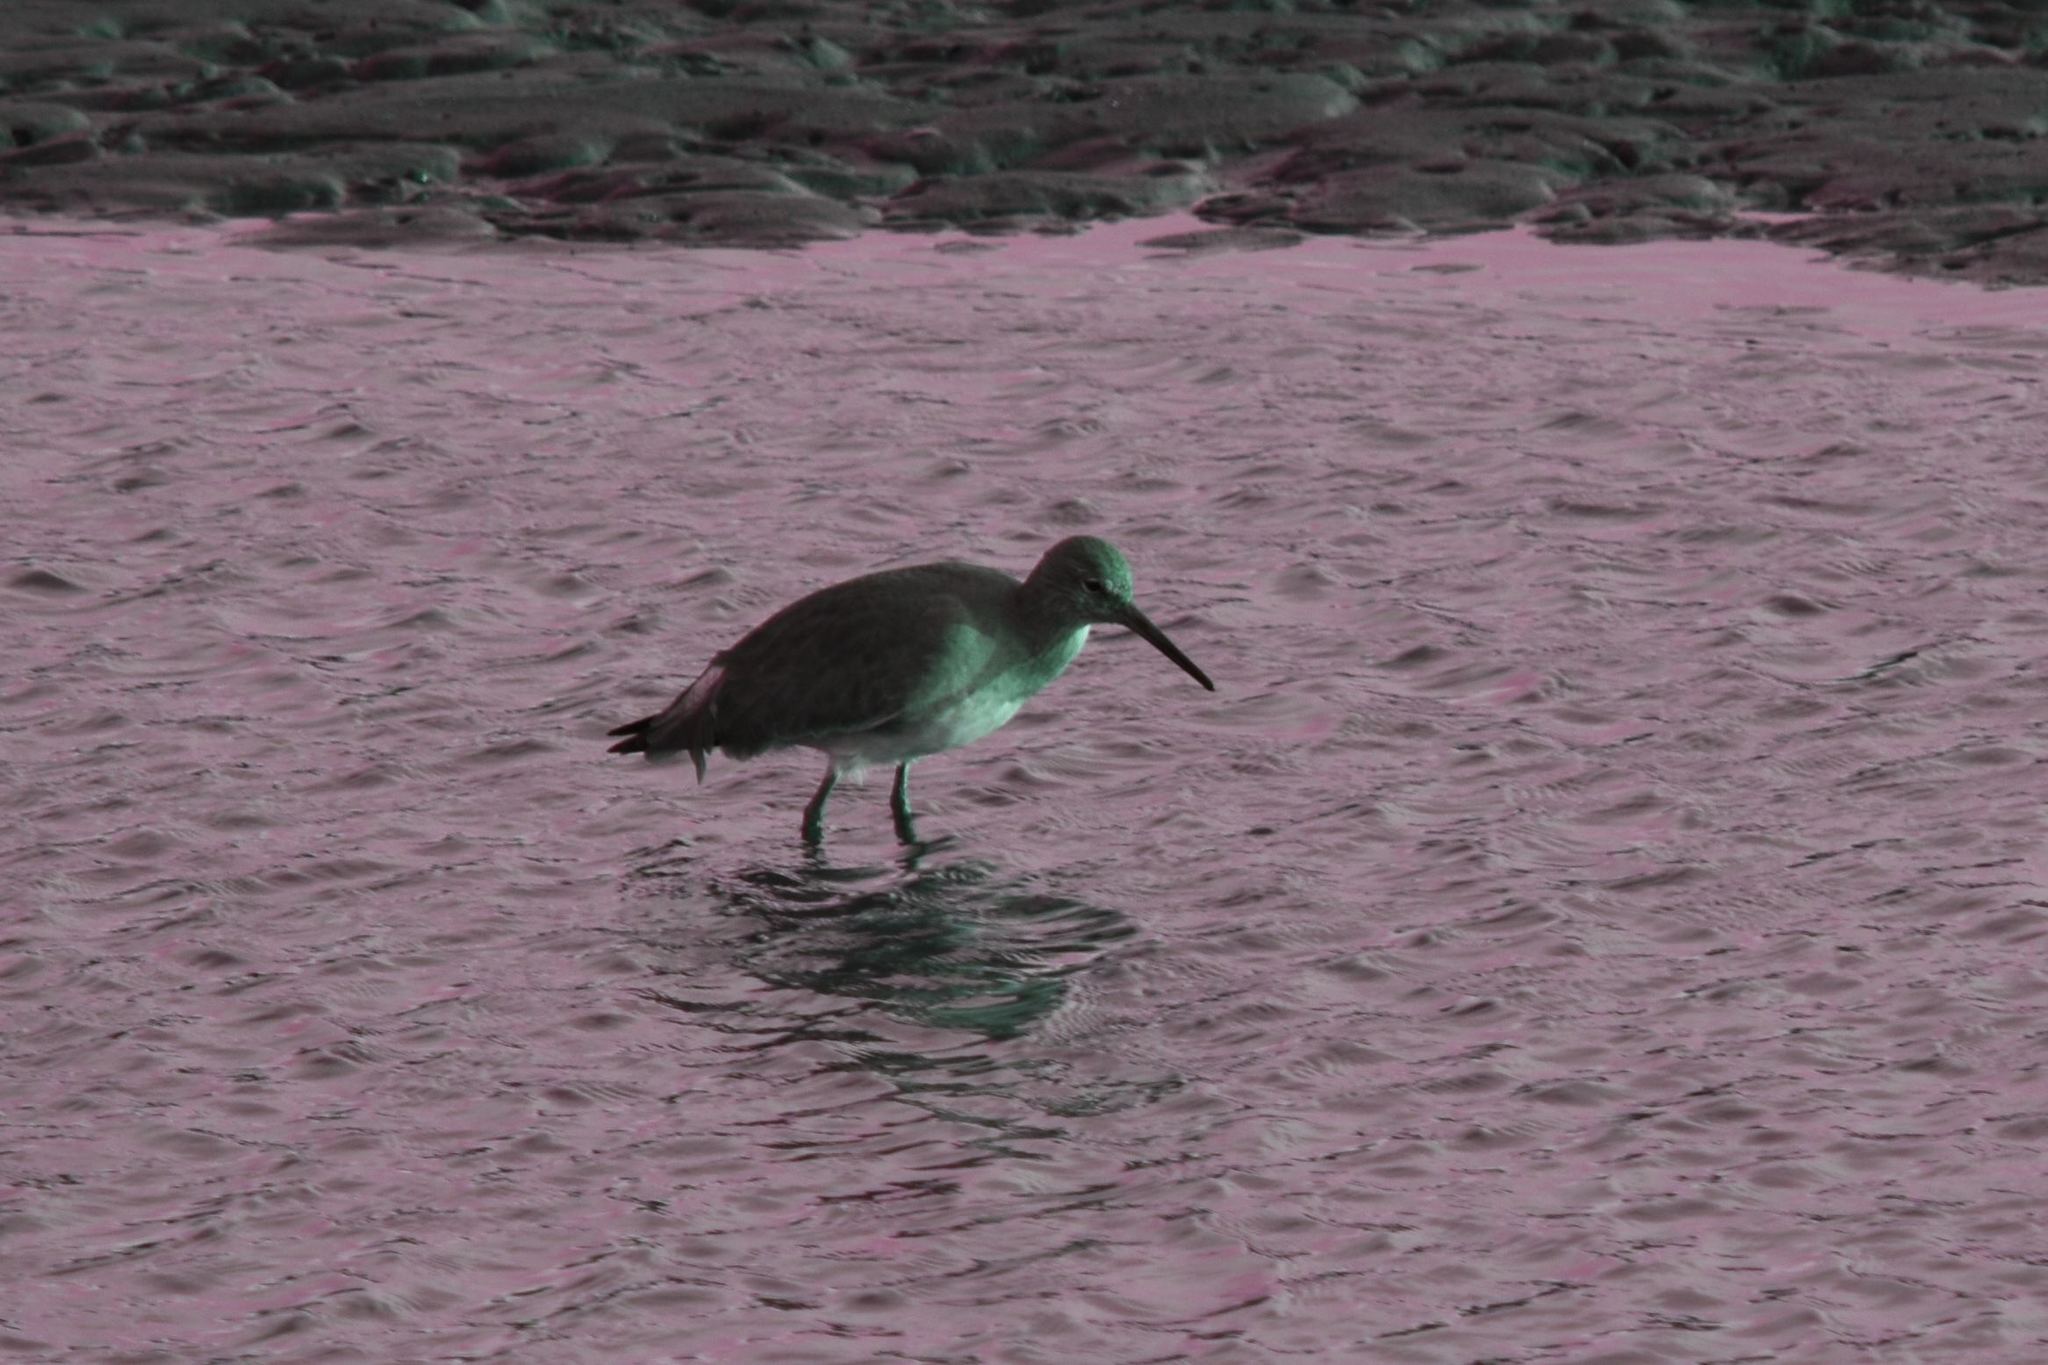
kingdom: Animalia
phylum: Chordata
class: Aves
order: Charadriiformes
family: Scolopacidae
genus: Tringa
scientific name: Tringa semipalmata
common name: Willet
